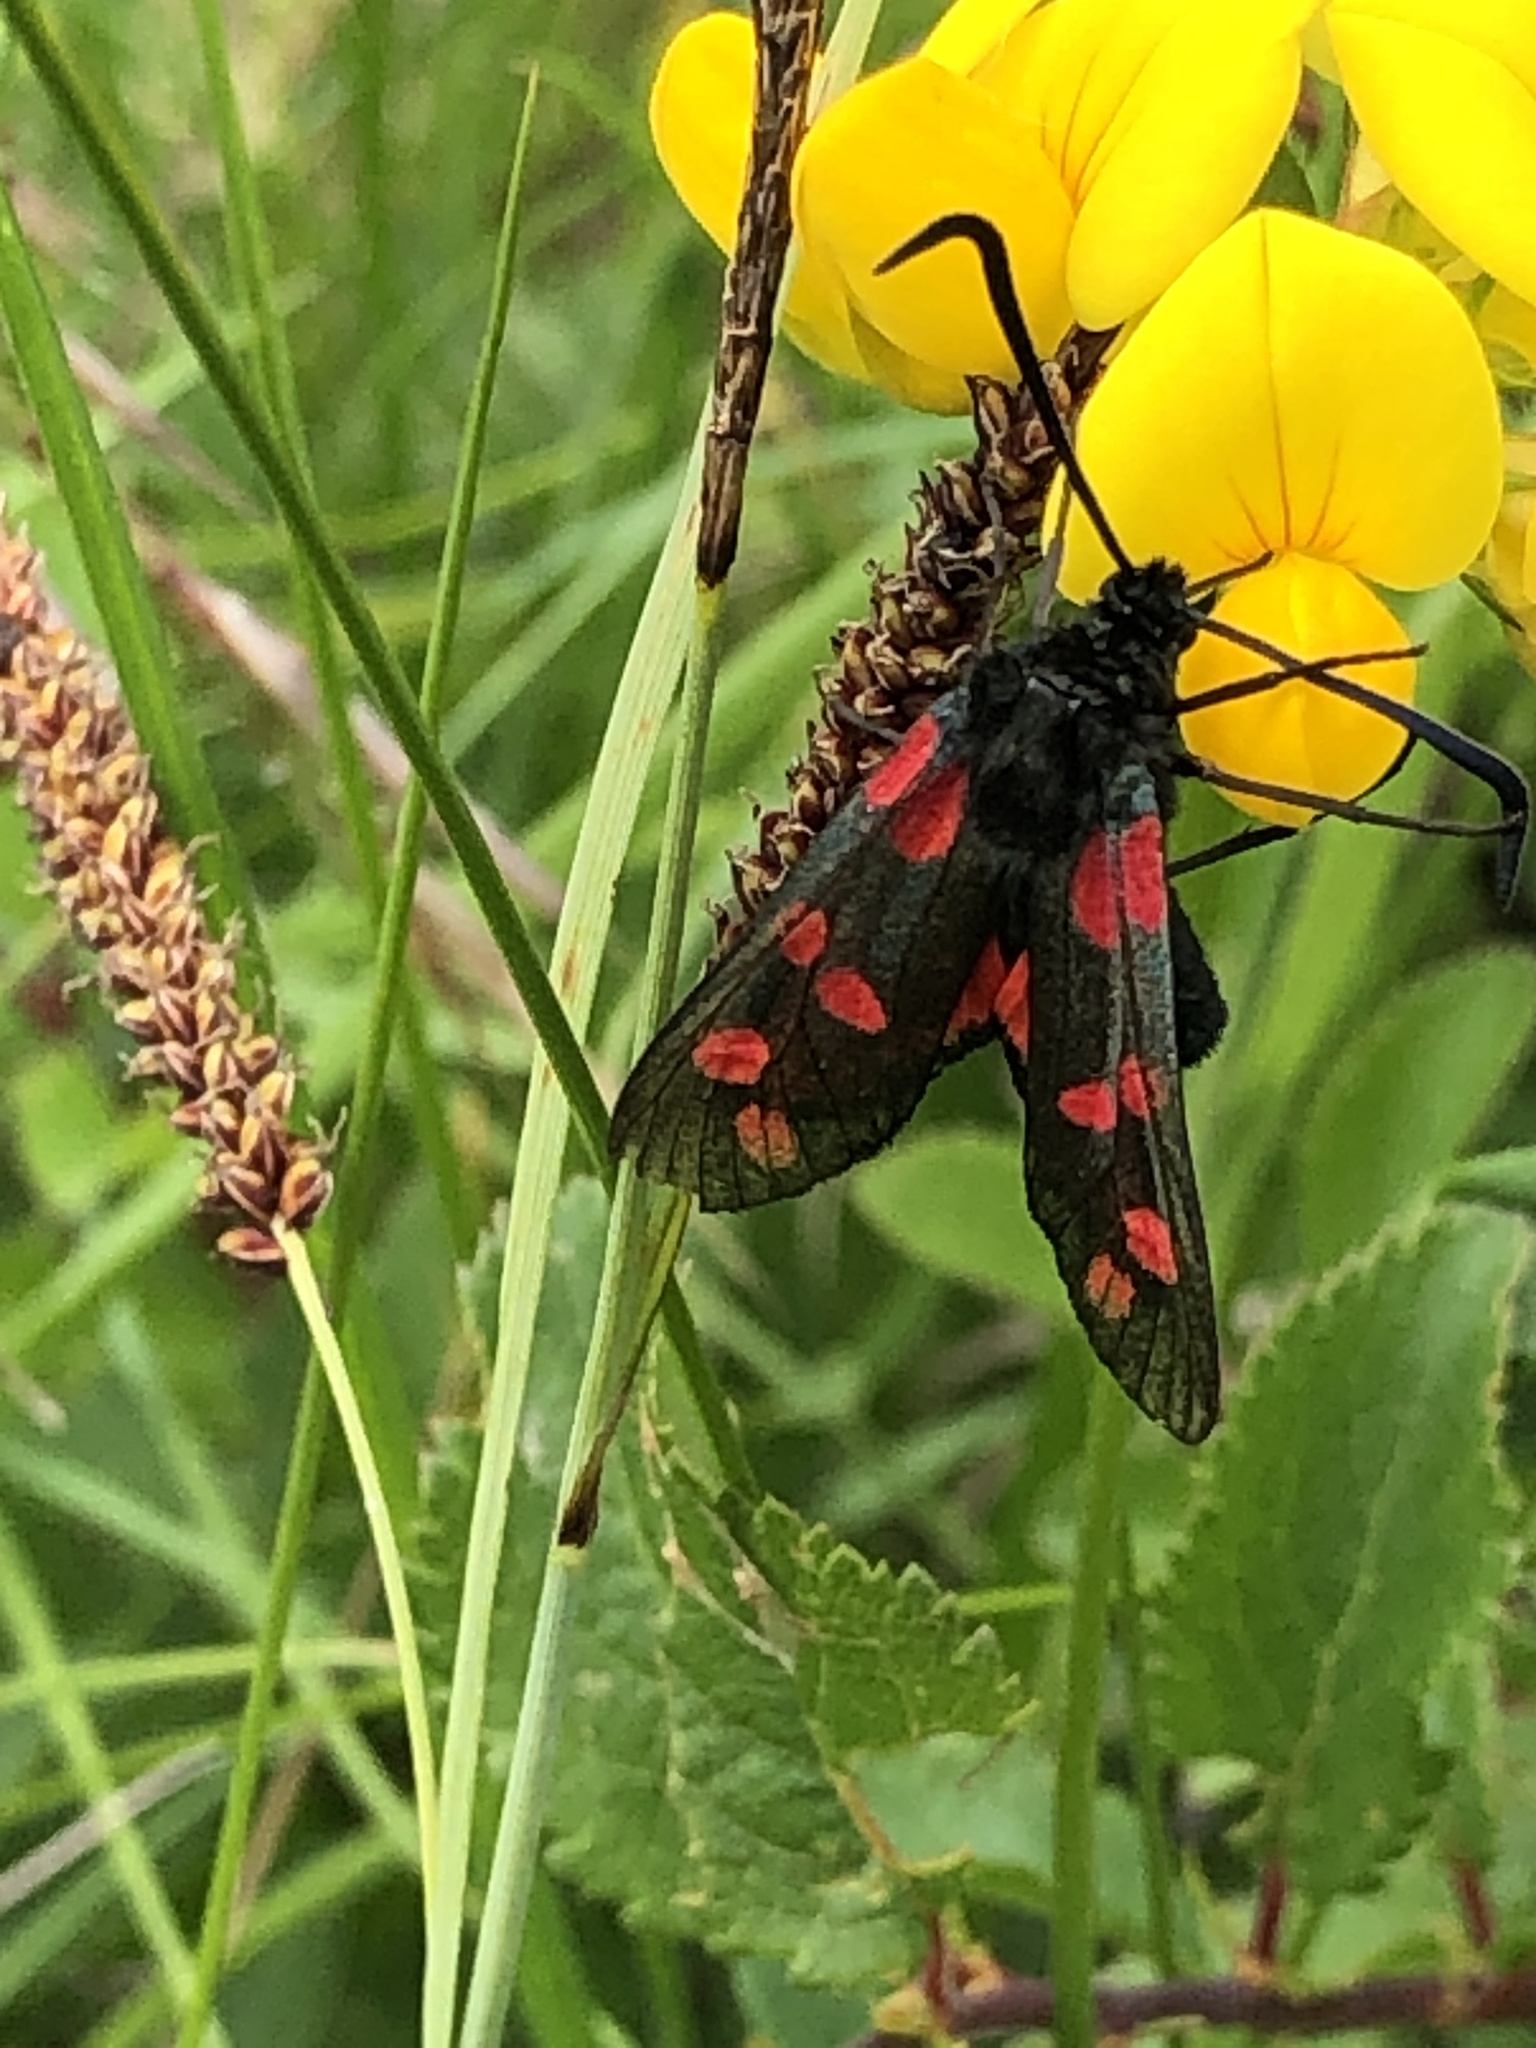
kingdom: Animalia
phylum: Arthropoda
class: Insecta
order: Lepidoptera
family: Zygaenidae
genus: Zygaena
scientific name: Zygaena filipendulae
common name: Six-spot burnet
